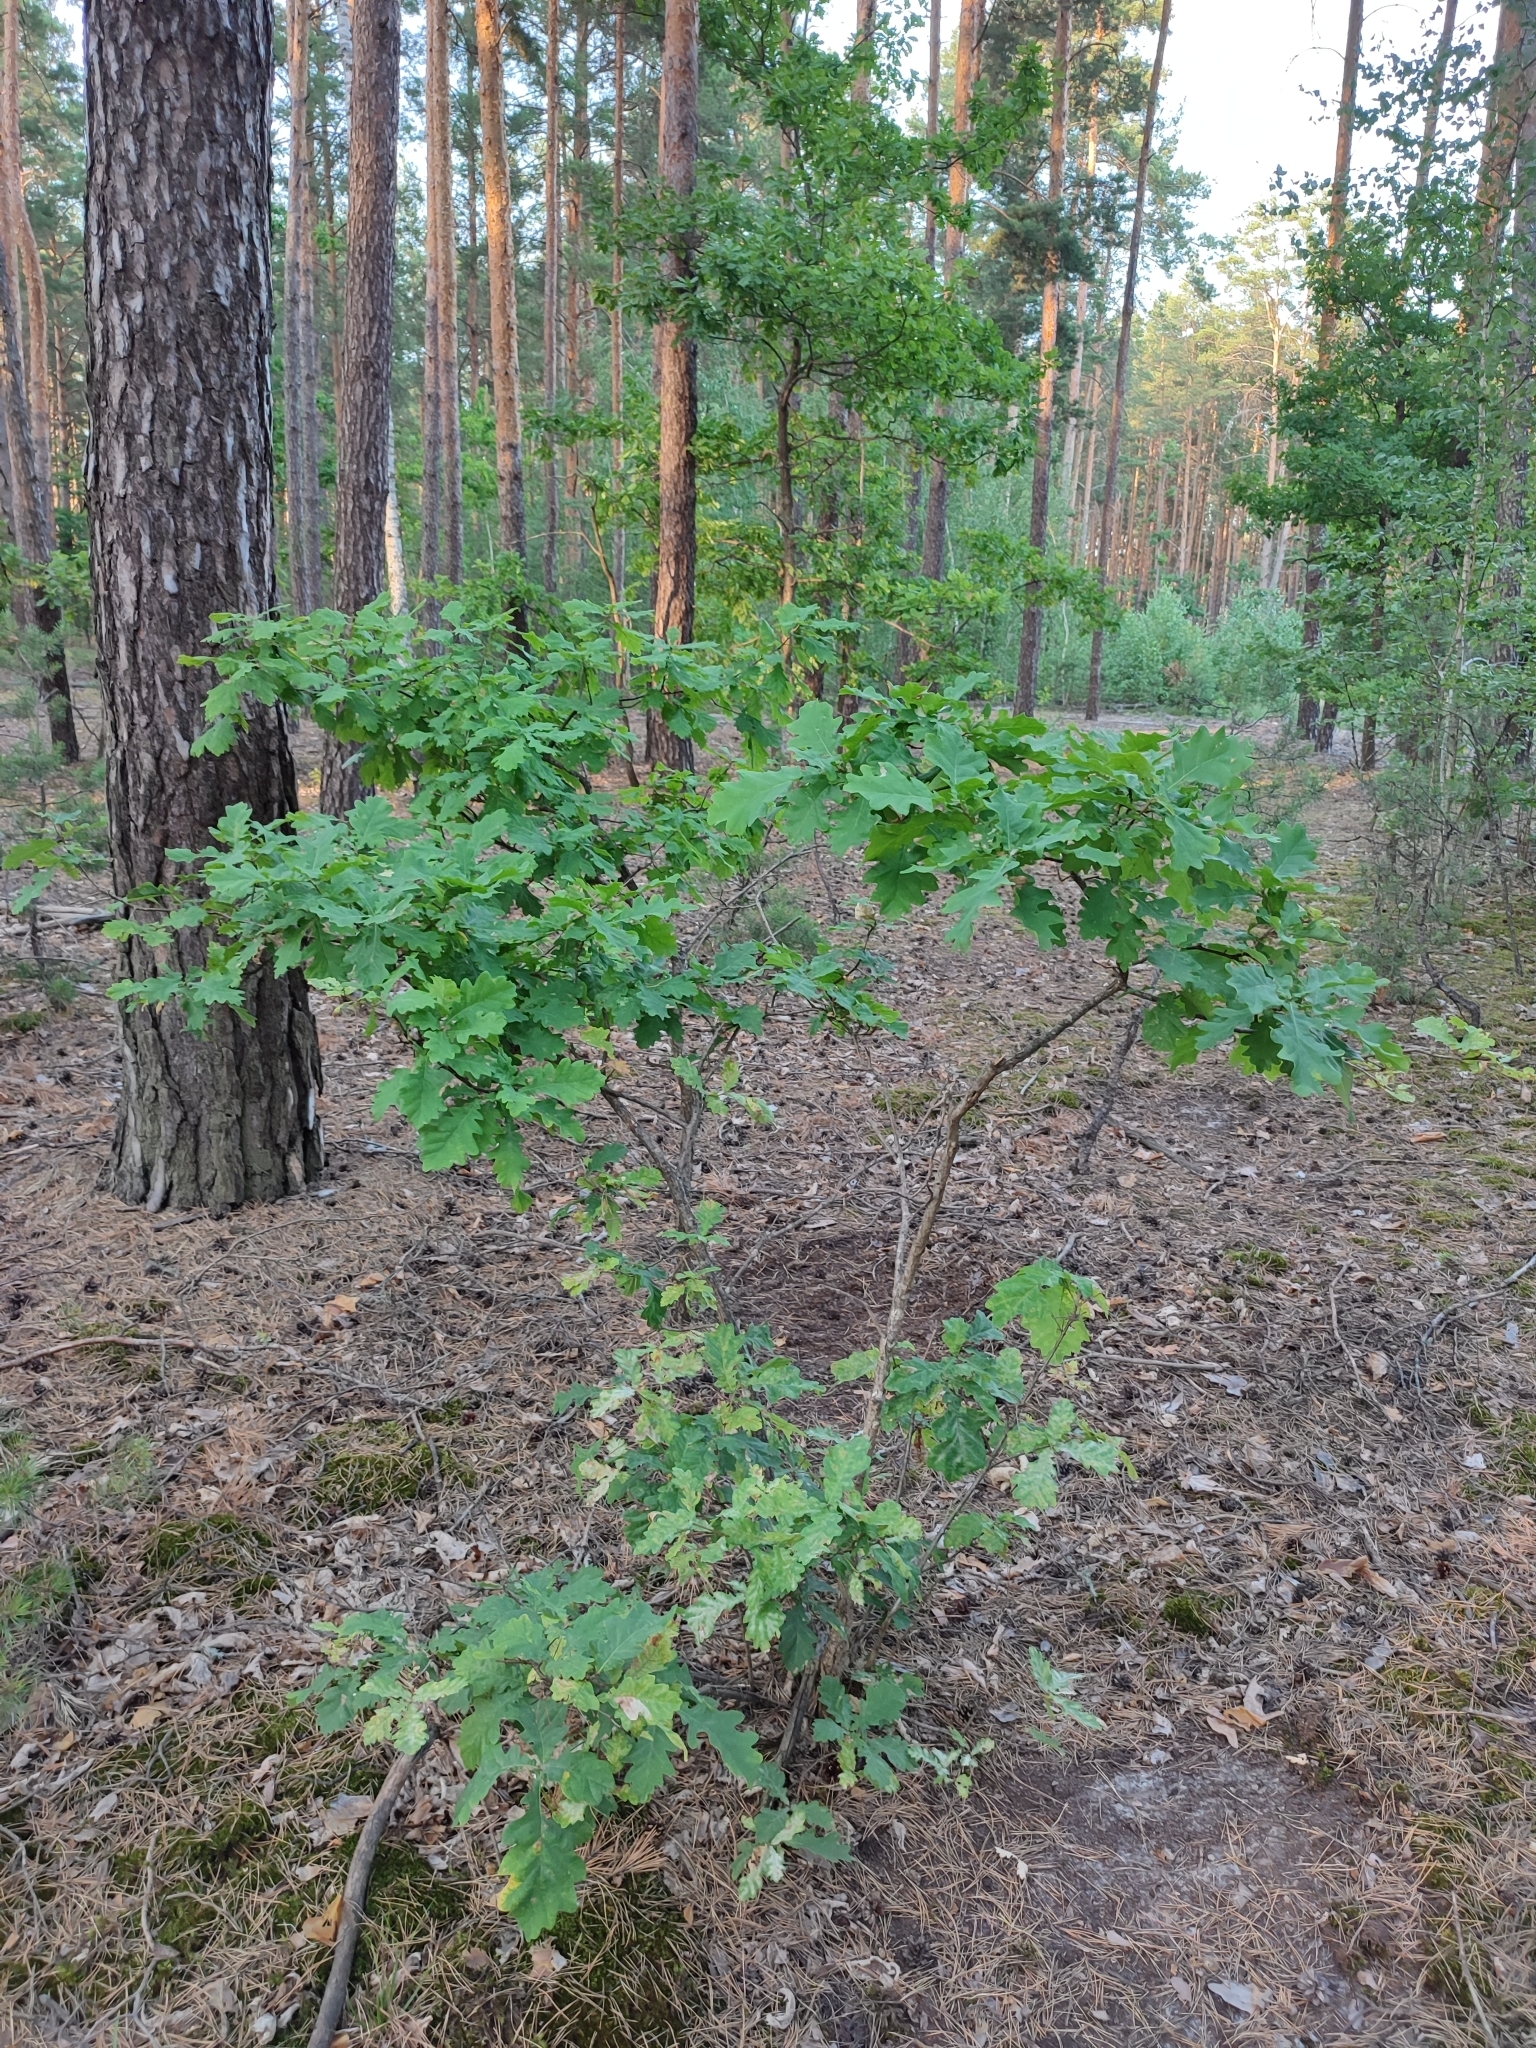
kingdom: Plantae
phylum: Tracheophyta
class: Magnoliopsida
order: Fagales
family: Fagaceae
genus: Quercus
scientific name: Quercus robur
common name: Pedunculate oak
